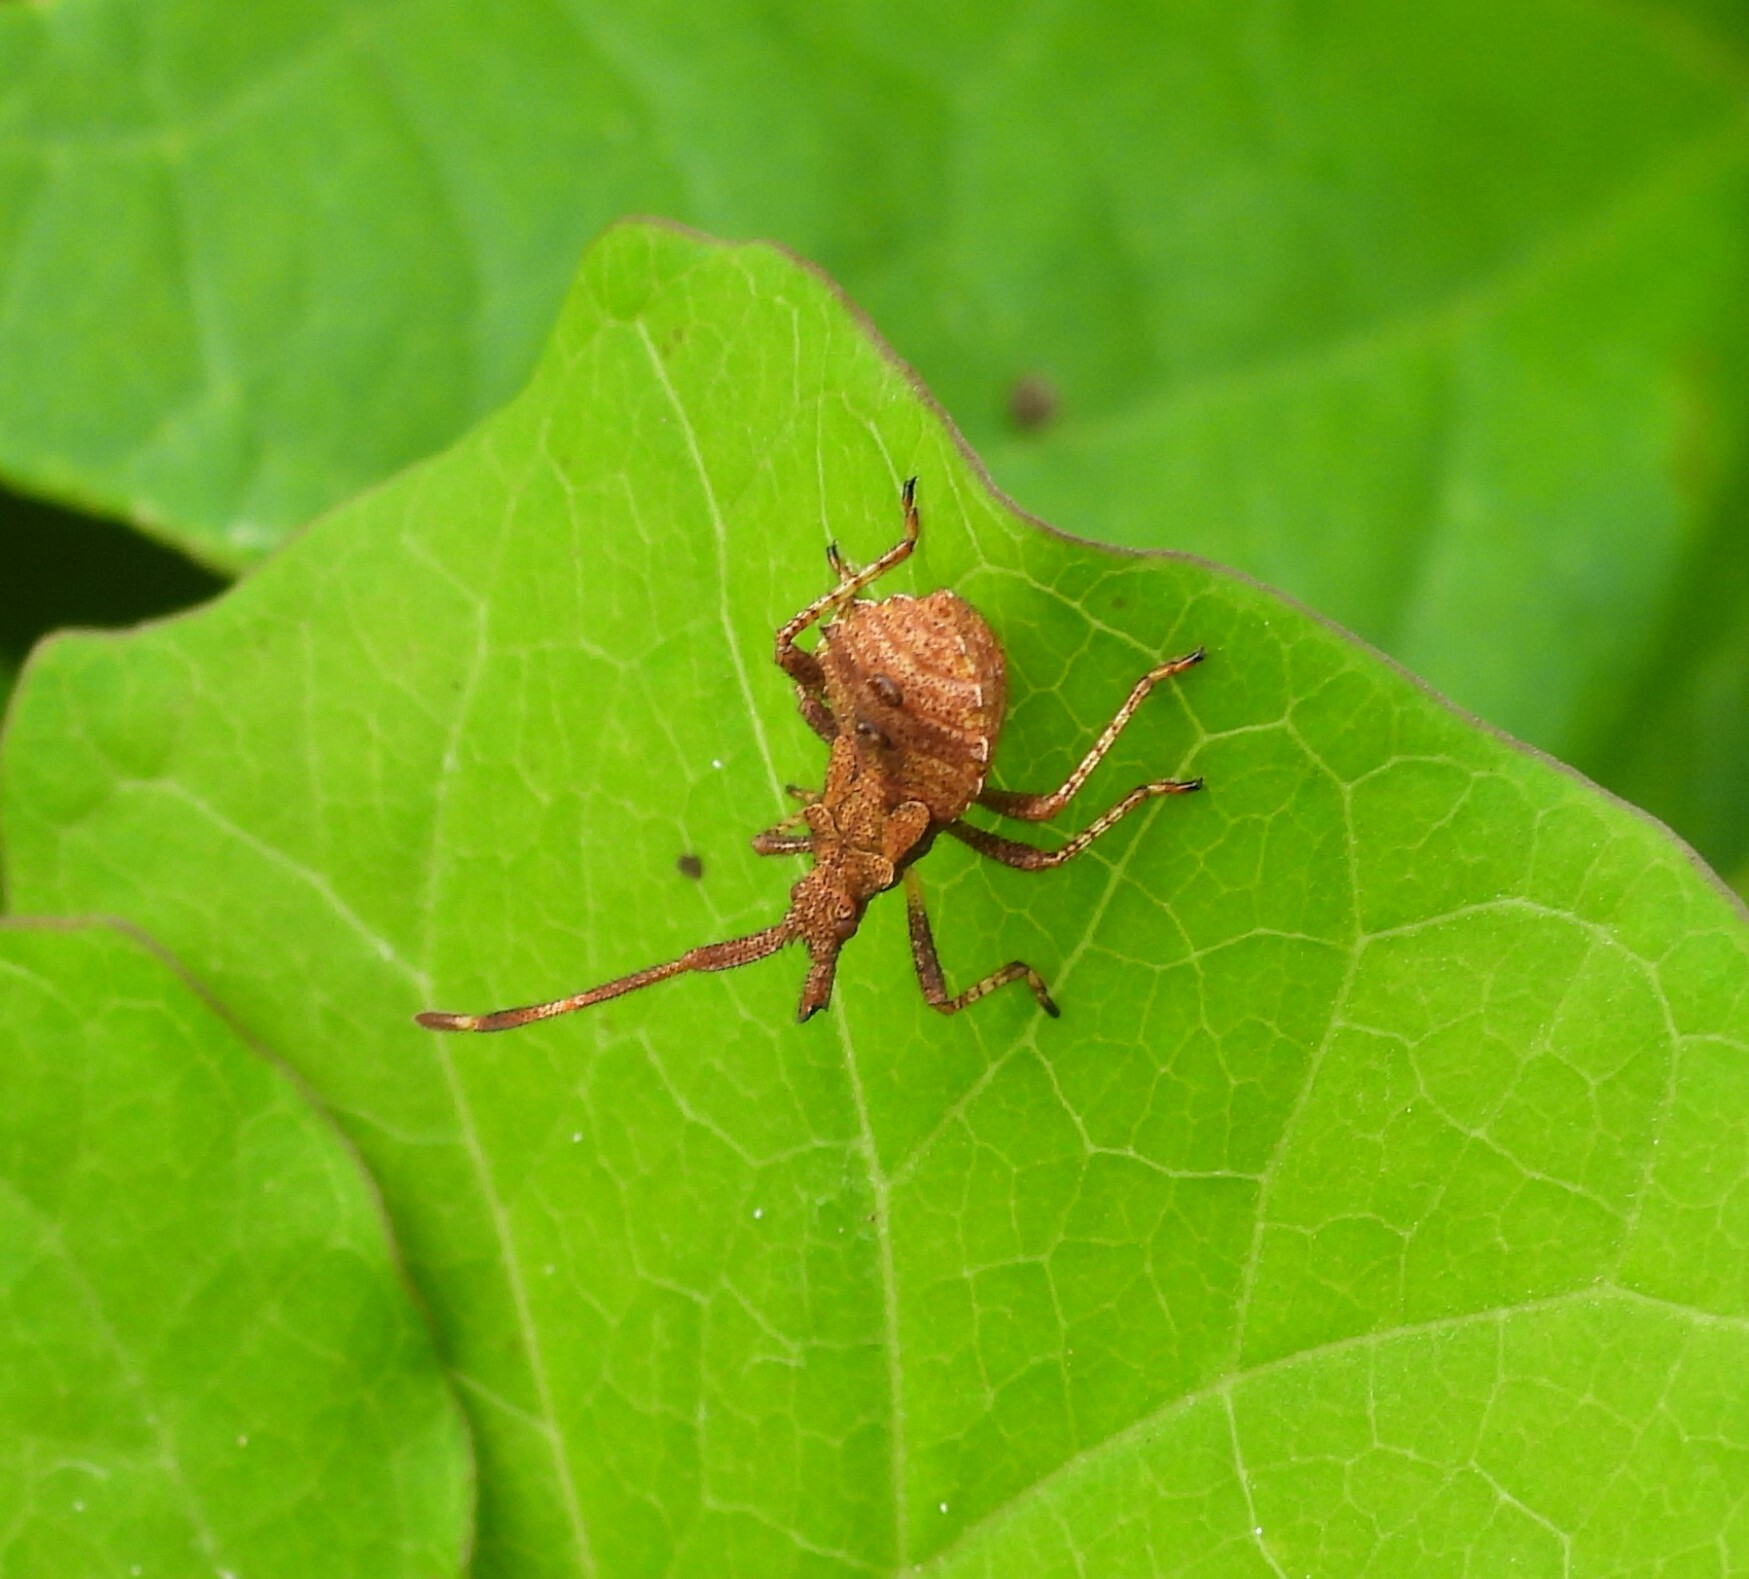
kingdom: Animalia
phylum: Arthropoda
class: Insecta
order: Hemiptera
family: Coreidae
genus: Coreus
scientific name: Coreus marginatus
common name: Dock bug
